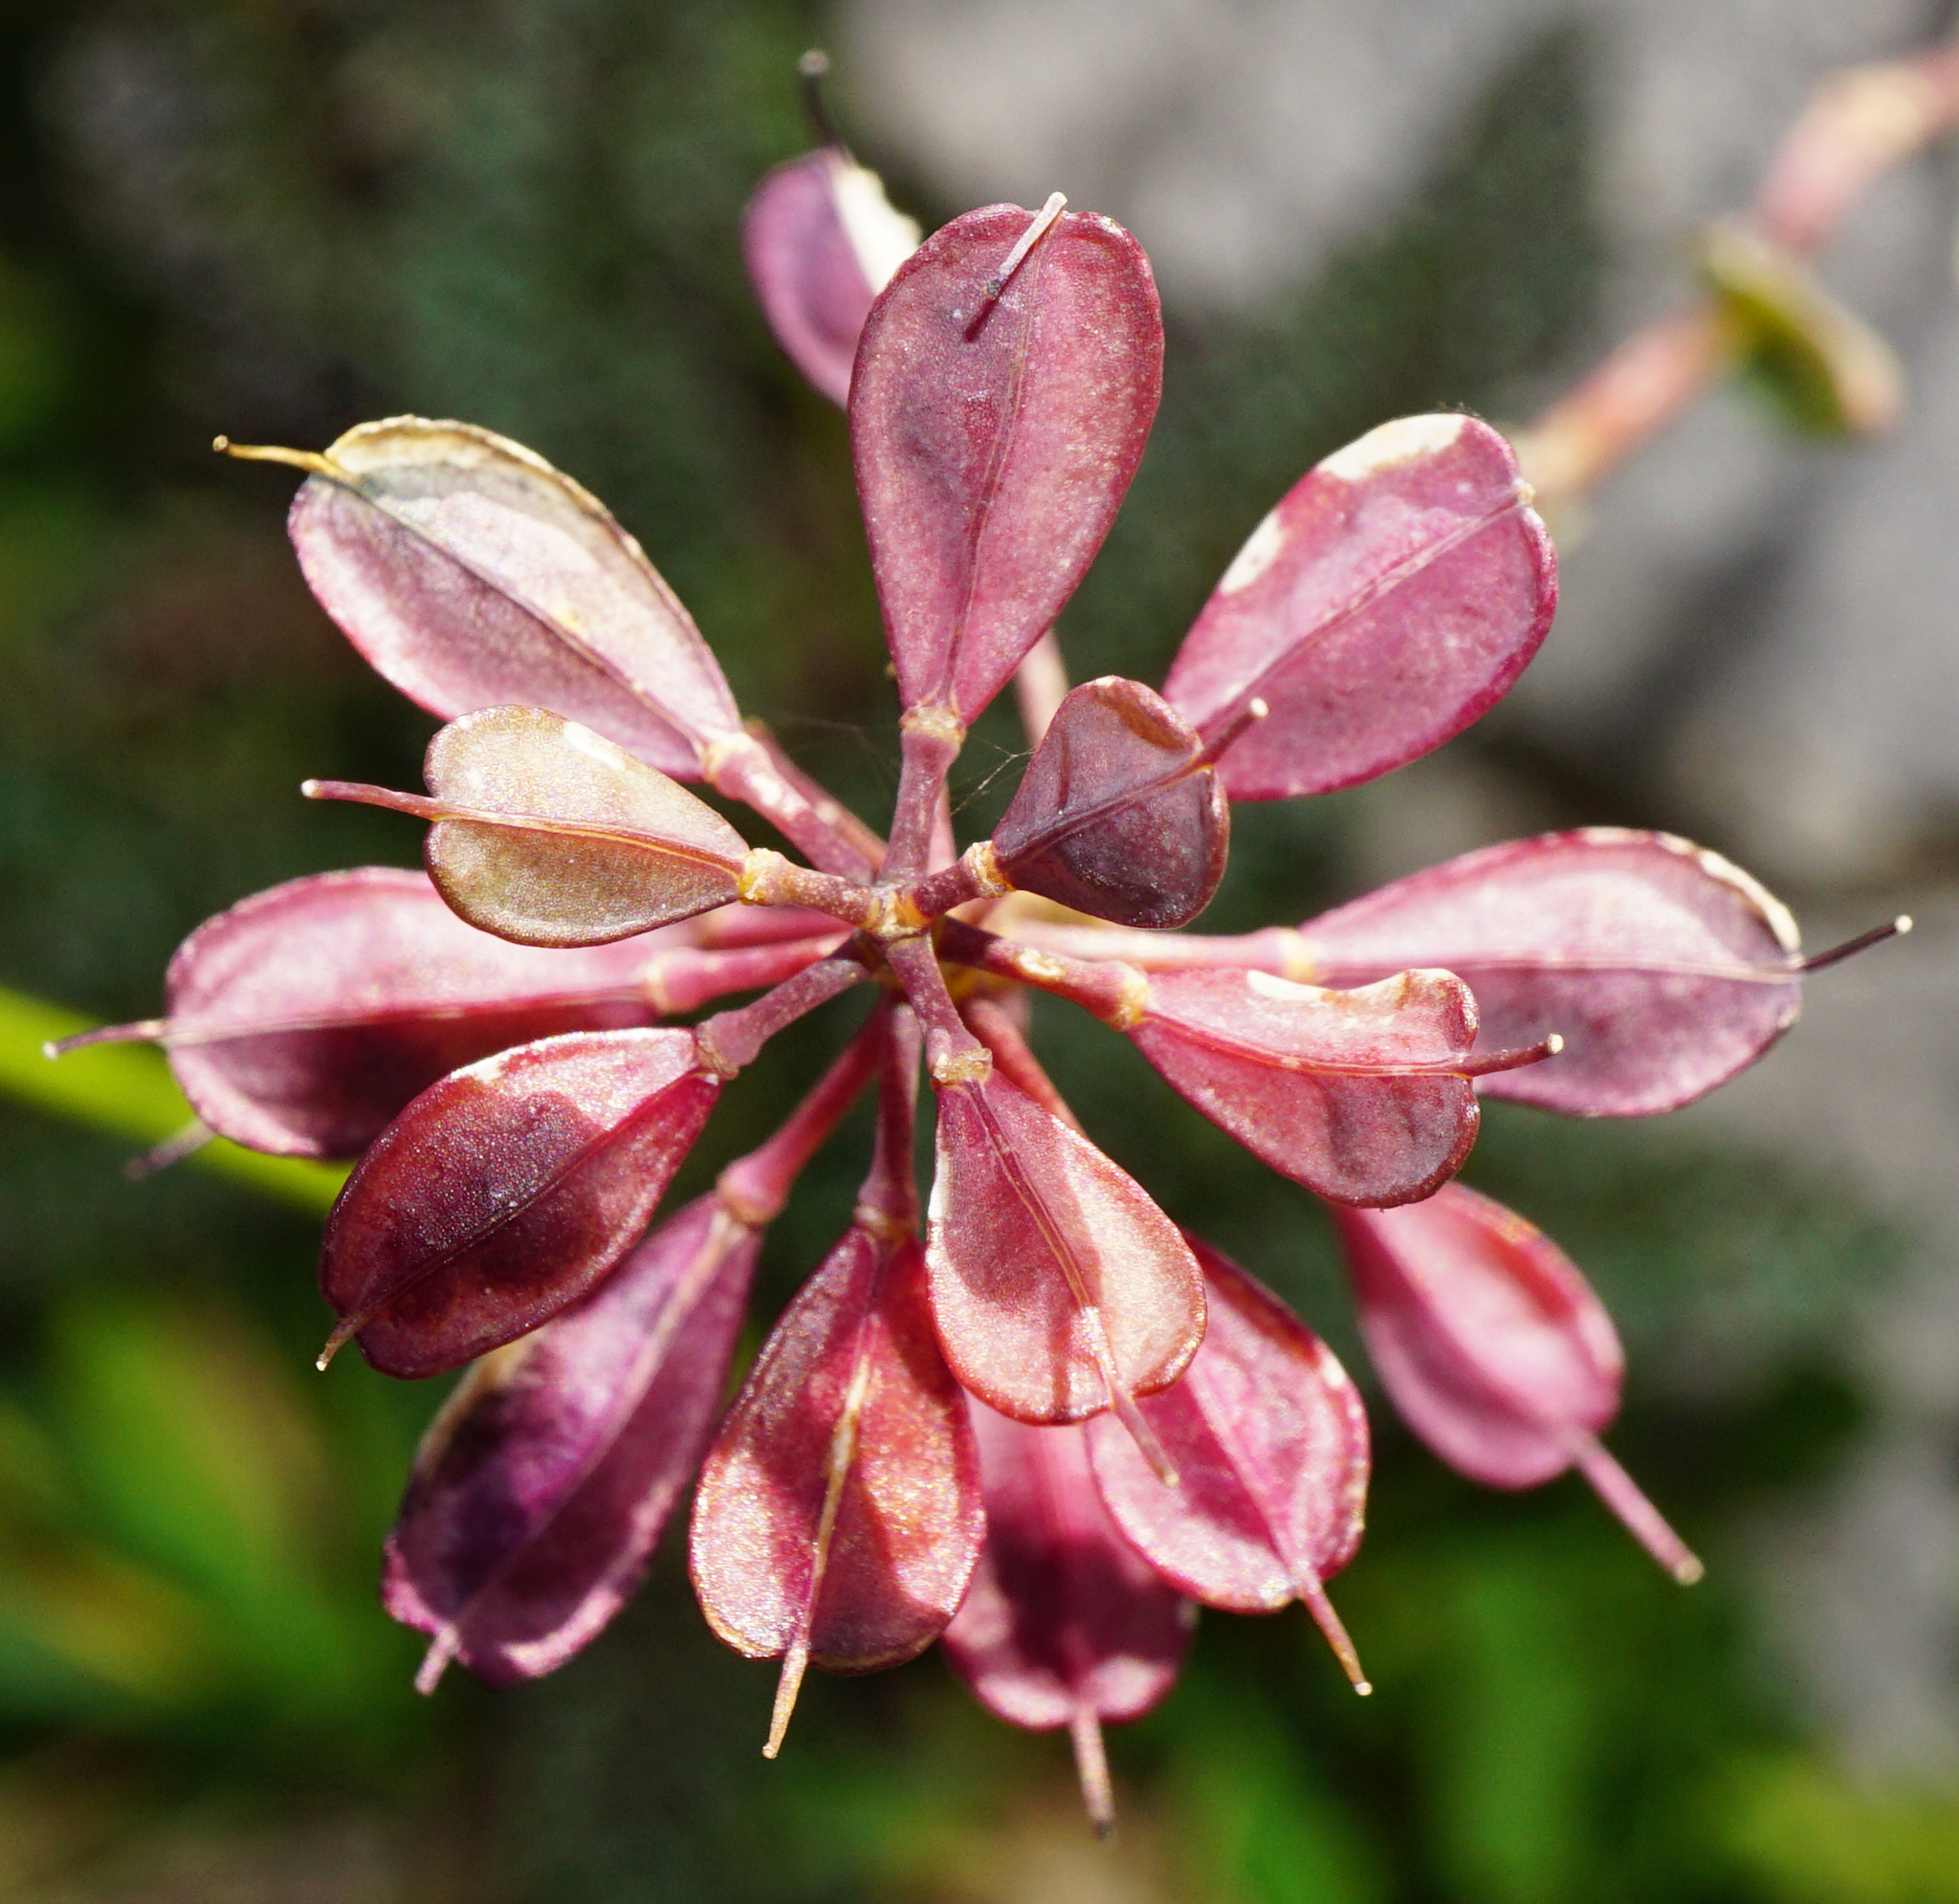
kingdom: Plantae
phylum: Tracheophyta
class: Magnoliopsida
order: Brassicales
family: Brassicaceae
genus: Noccaea
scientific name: Noccaea alpestris
